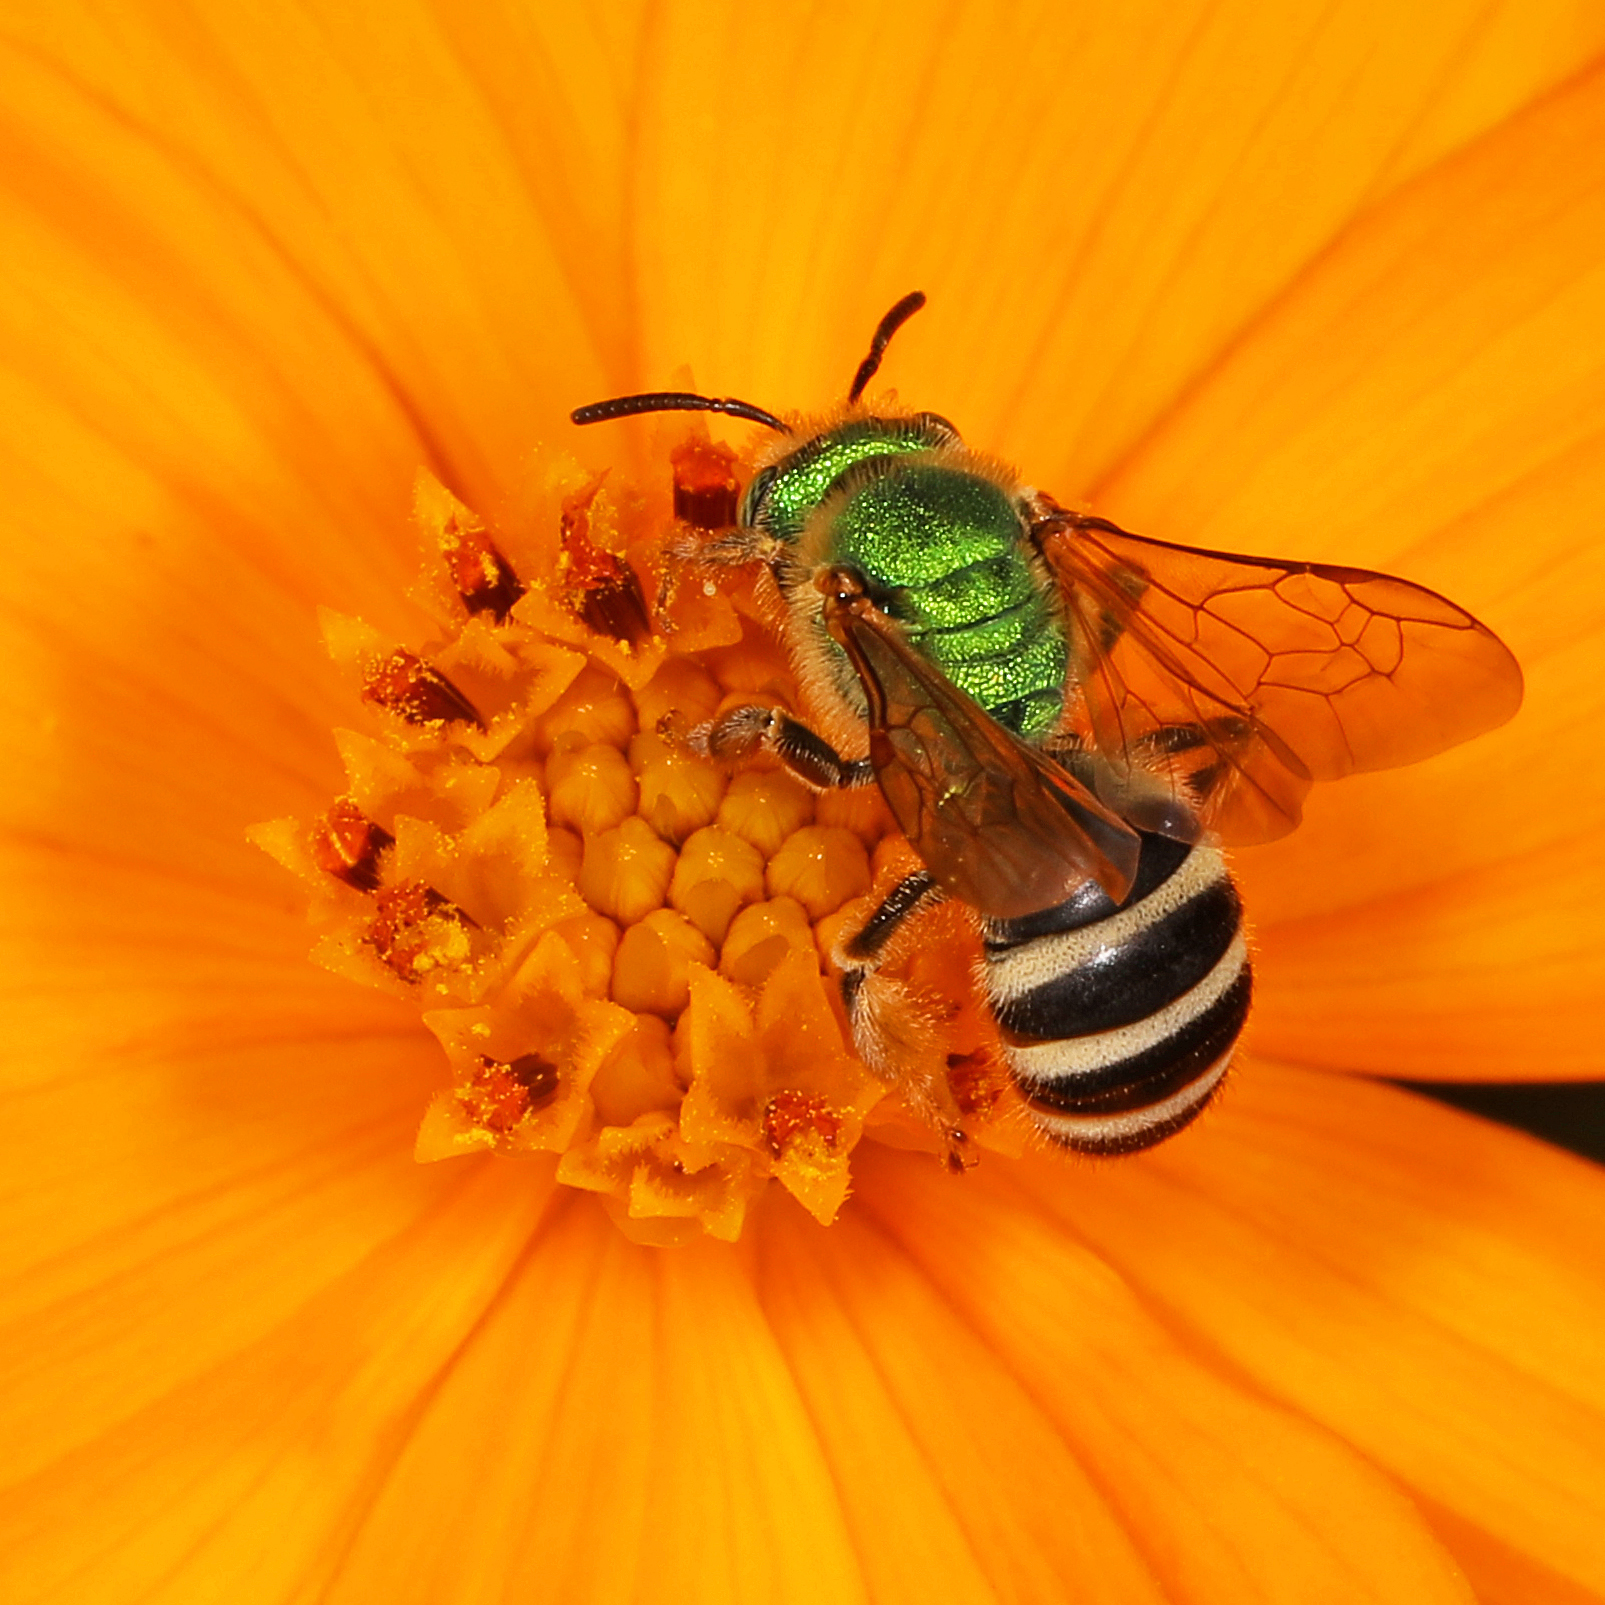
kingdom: Animalia
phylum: Arthropoda
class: Insecta
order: Hymenoptera
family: Halictidae
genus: Agapostemon
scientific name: Agapostemon virescens
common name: Bicolored striped sweat bee
